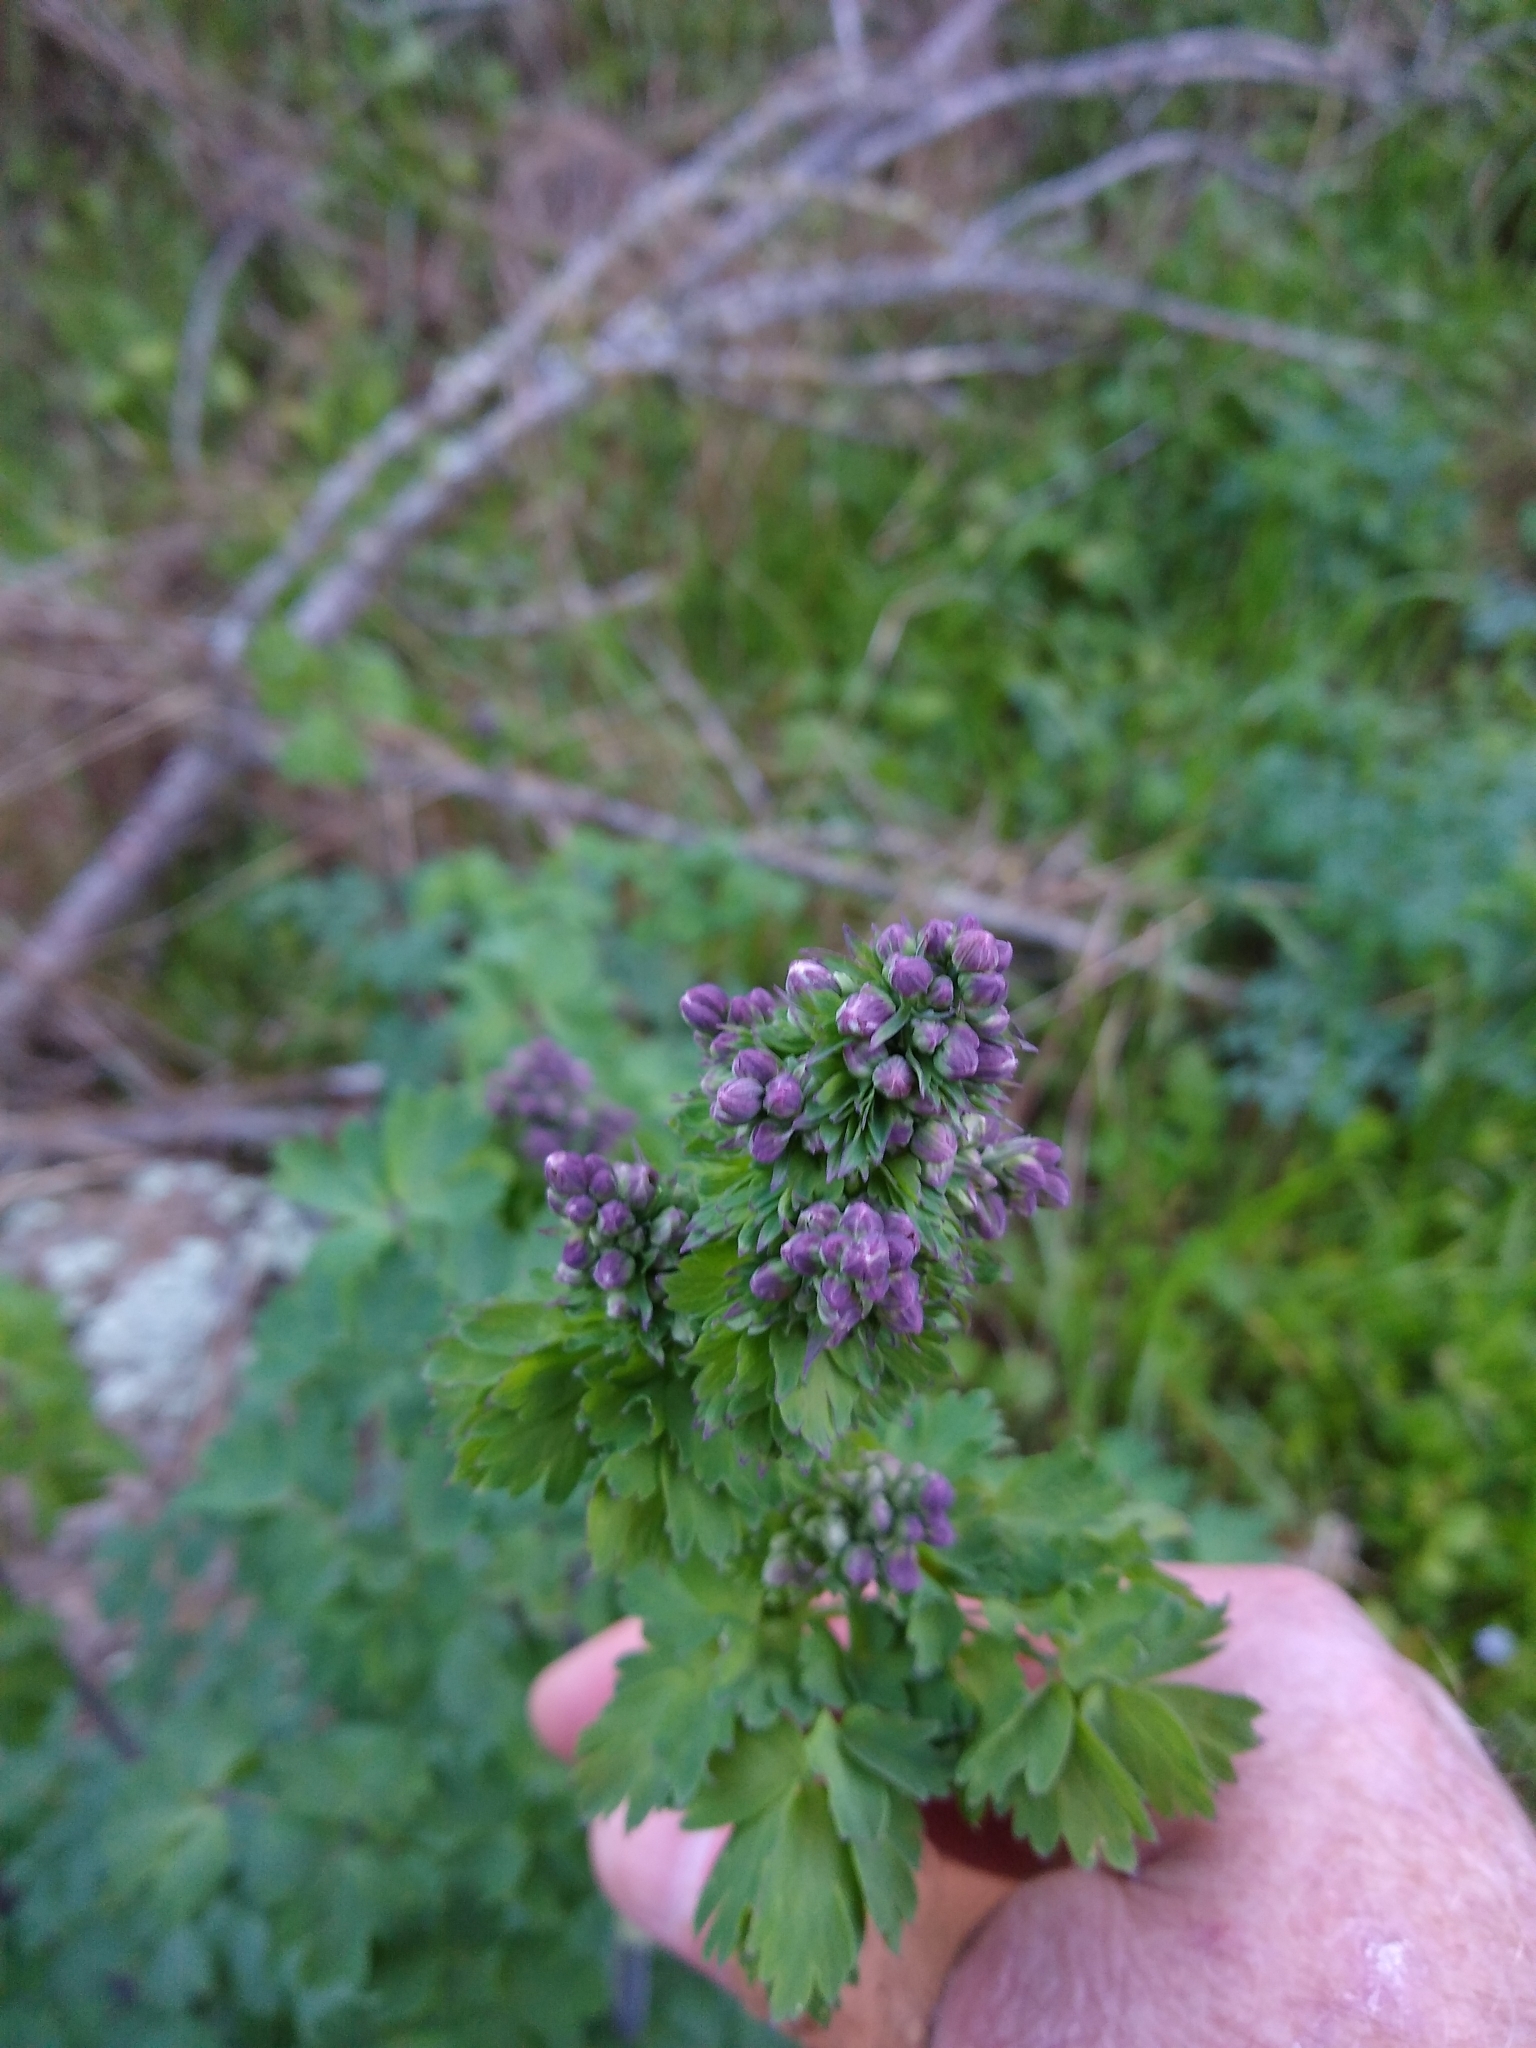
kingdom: Plantae
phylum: Tracheophyta
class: Magnoliopsida
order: Ranunculales
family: Ranunculaceae
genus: Thalictrum
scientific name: Thalictrum fendleri
